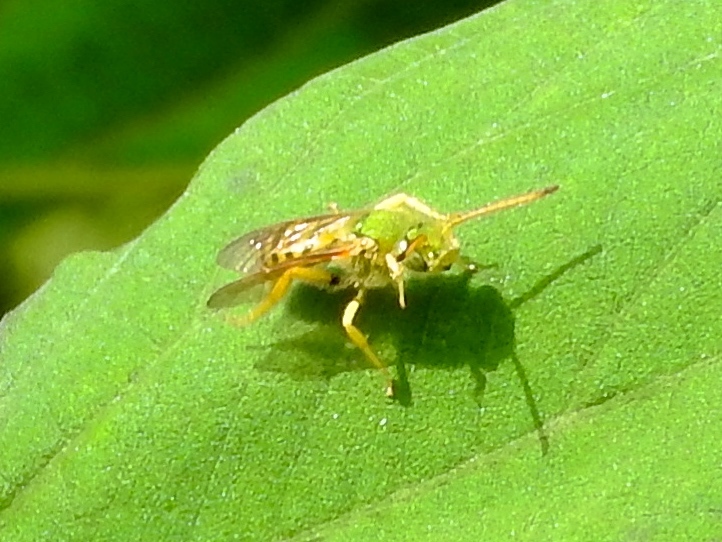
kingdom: Animalia
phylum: Arthropoda
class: Insecta
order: Hymenoptera
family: Halictidae
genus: Agapostemon
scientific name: Agapostemon nasutus
